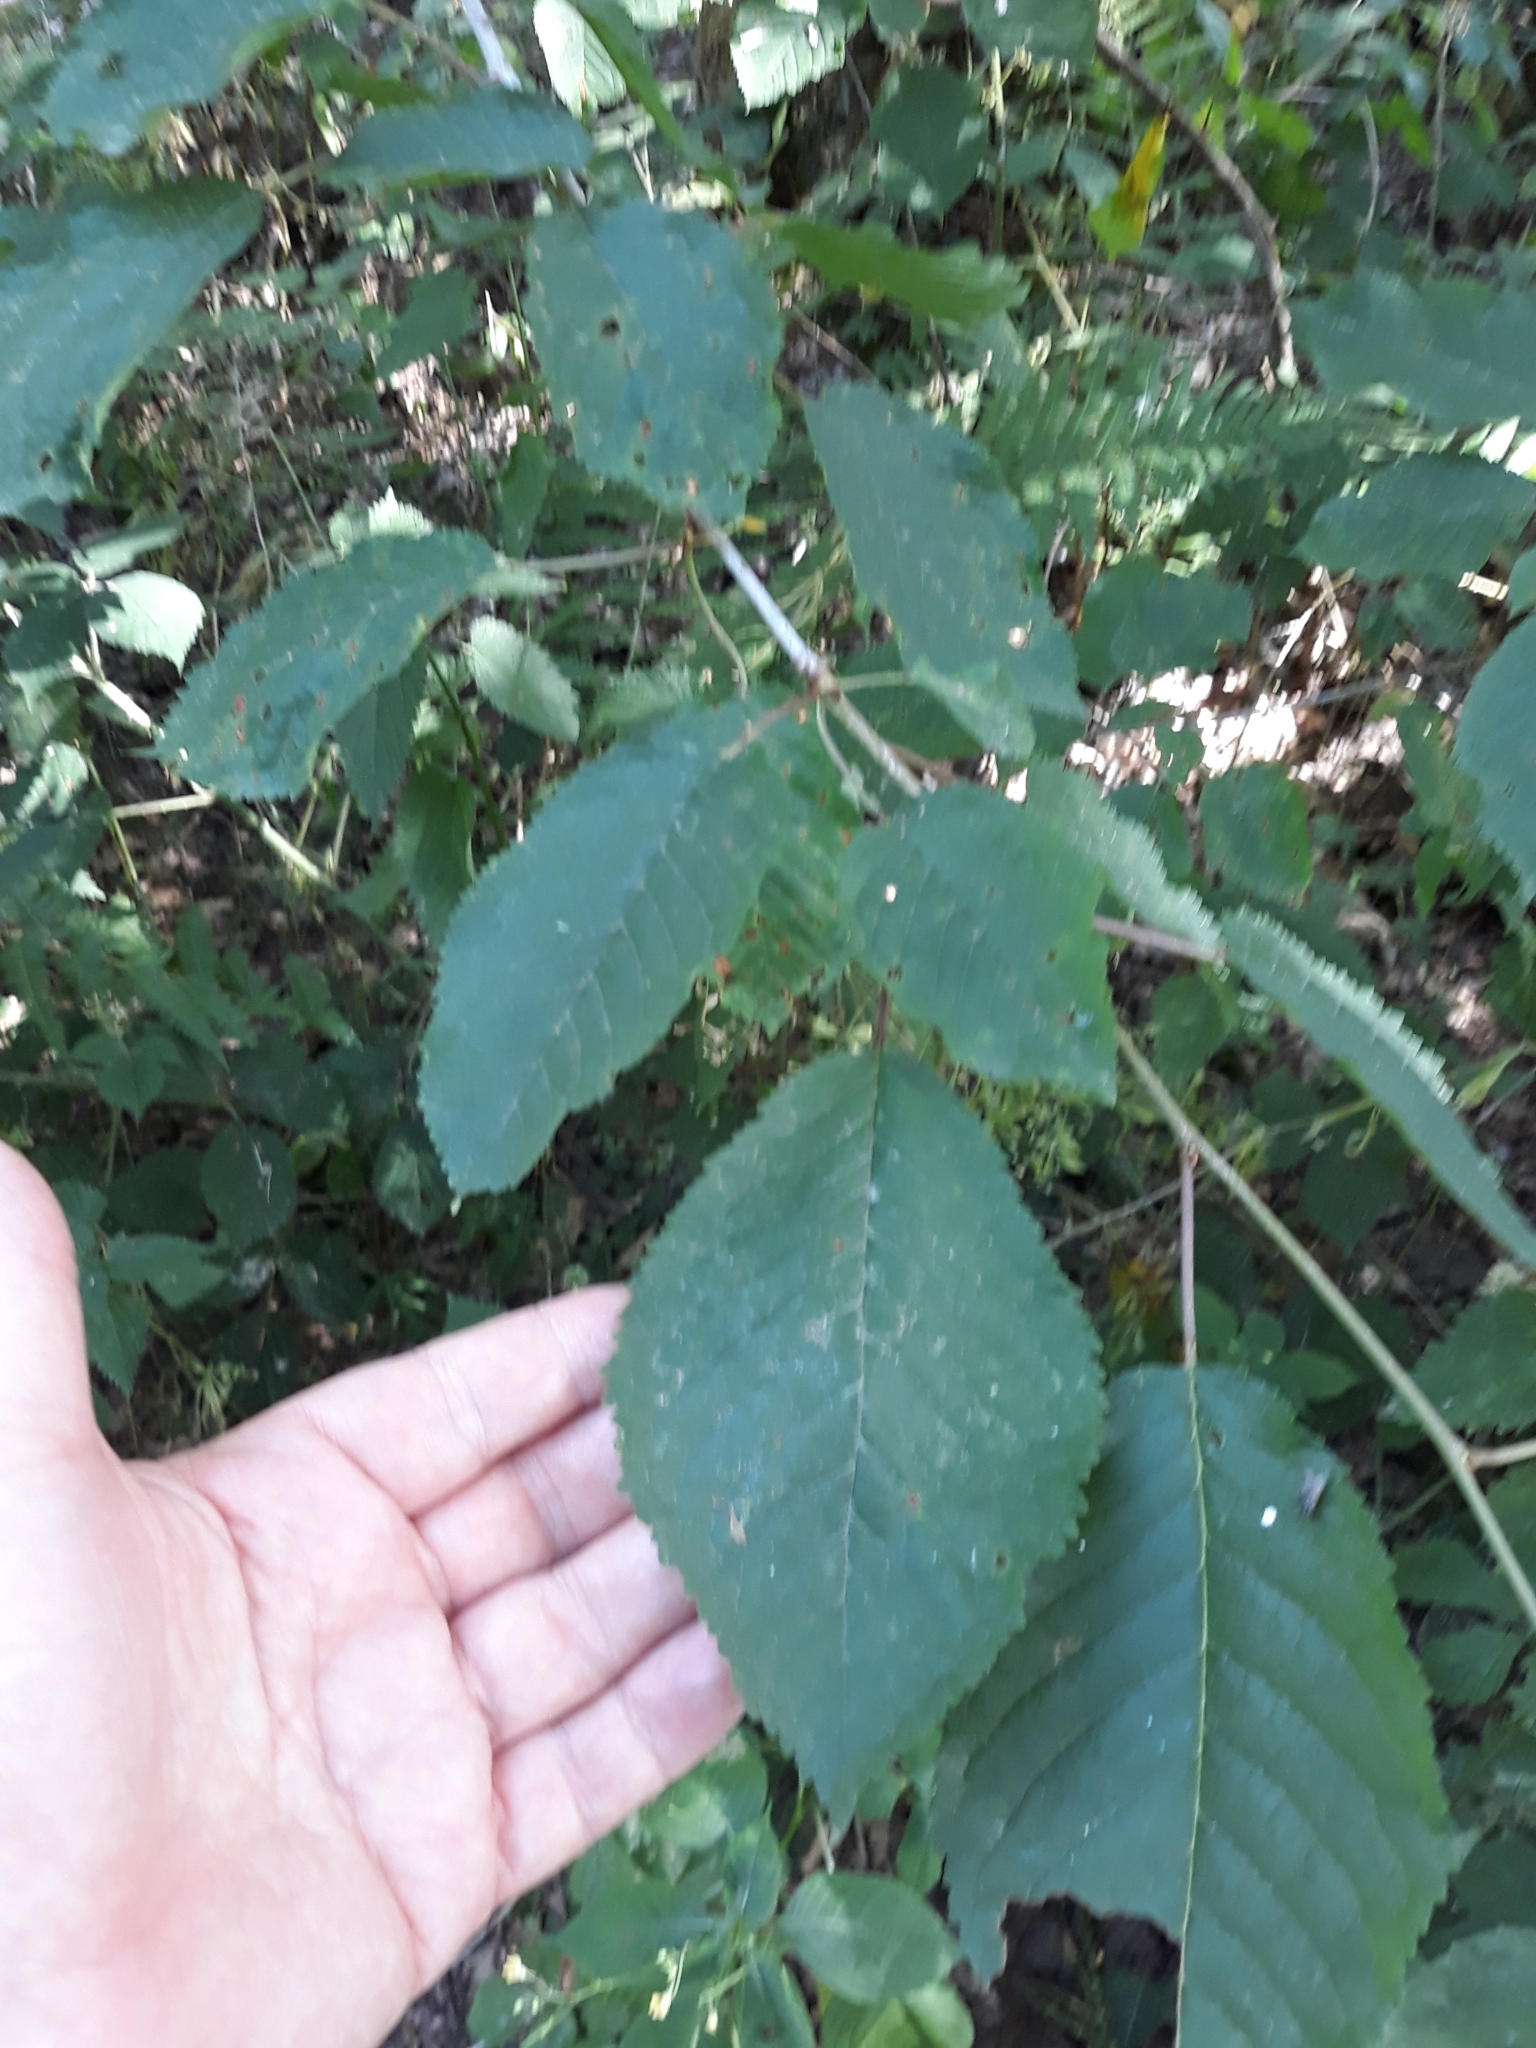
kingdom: Plantae
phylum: Tracheophyta
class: Magnoliopsida
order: Rosales
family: Rosaceae
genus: Prunus
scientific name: Prunus avium
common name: Sweet cherry
